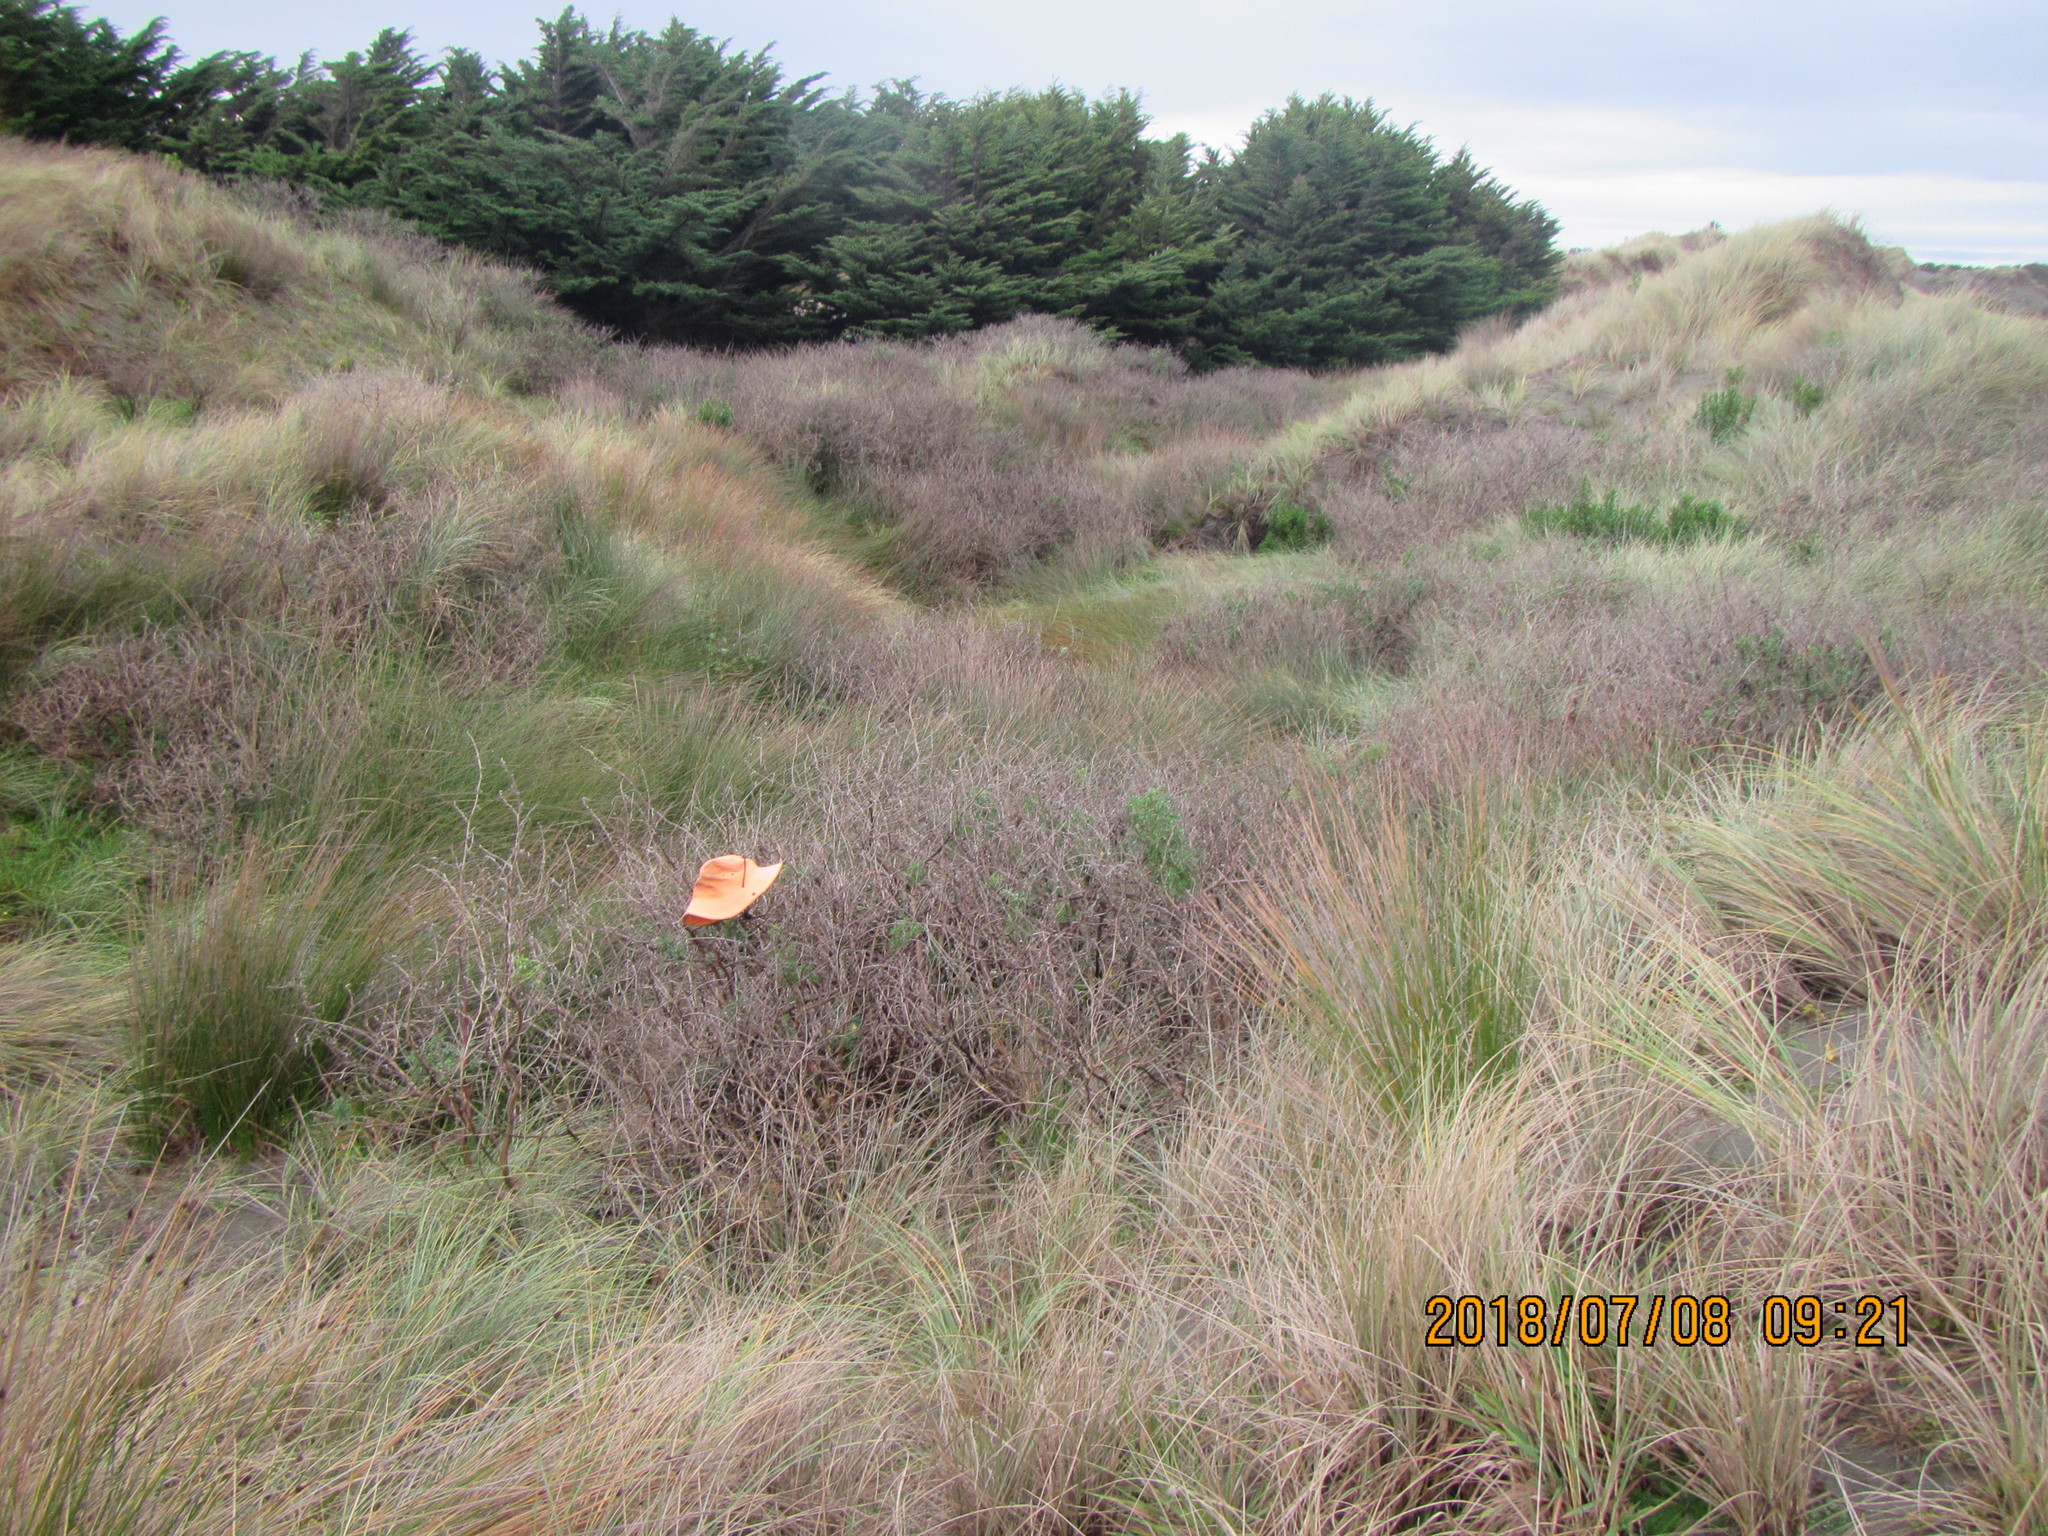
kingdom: Plantae
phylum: Tracheophyta
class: Magnoliopsida
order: Fabales
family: Fabaceae
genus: Lupinus
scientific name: Lupinus arboreus
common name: Yellow bush lupine
